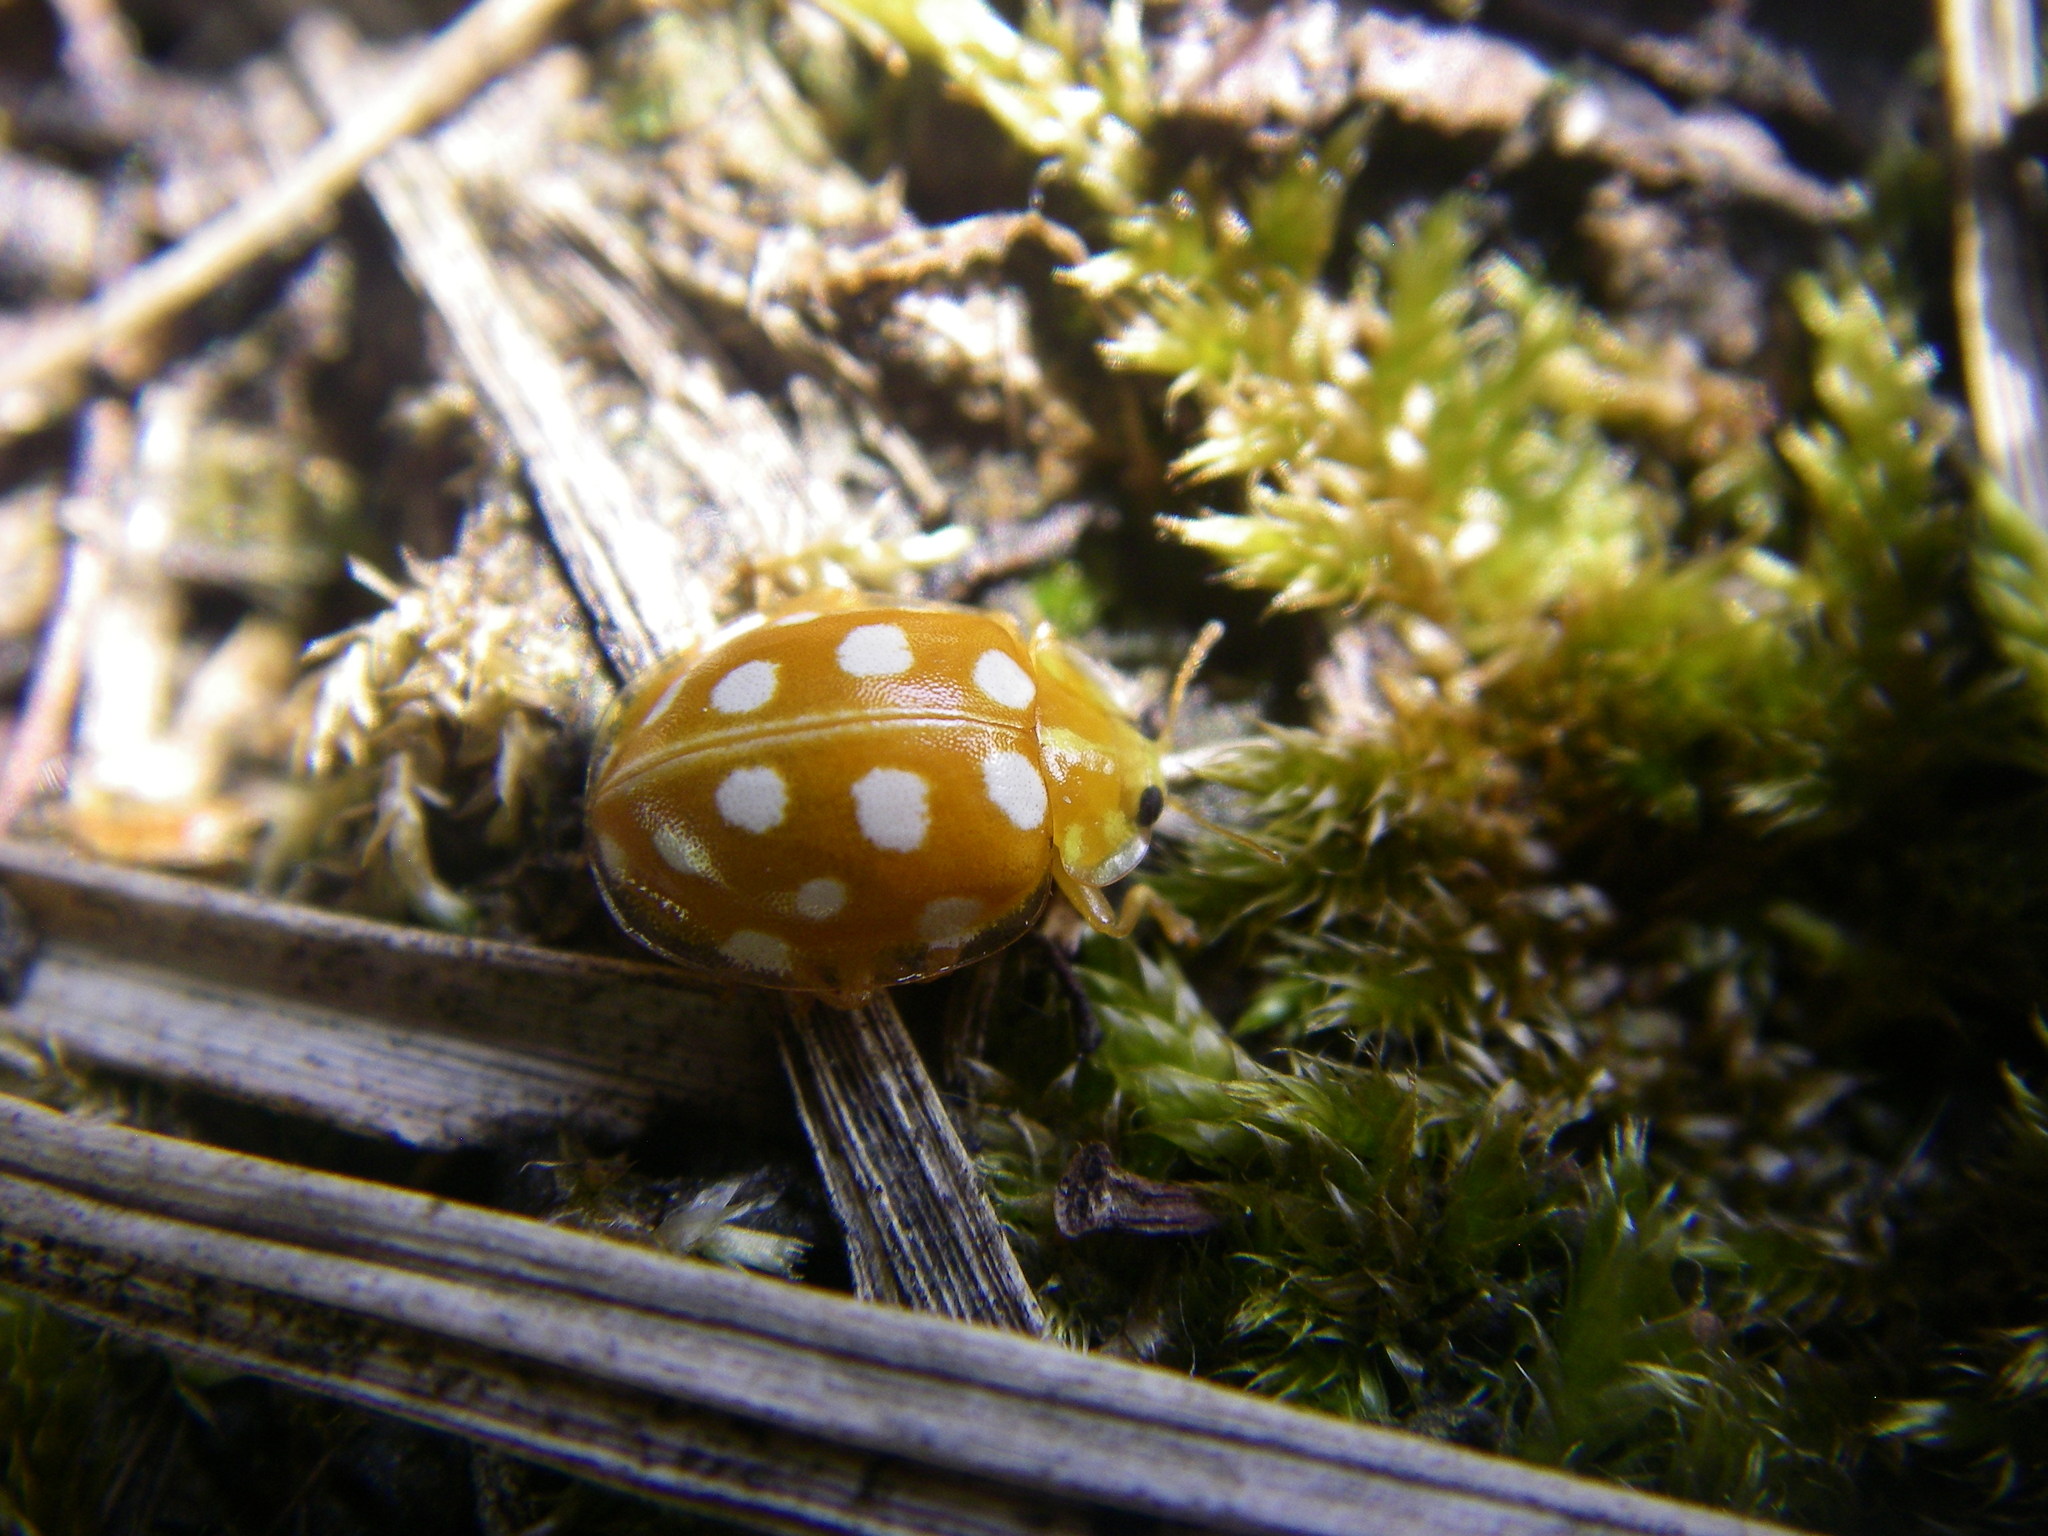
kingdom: Animalia
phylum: Arthropoda
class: Insecta
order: Coleoptera
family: Coccinellidae
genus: Halyzia
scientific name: Halyzia sedecimguttata
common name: Orange ladybird
